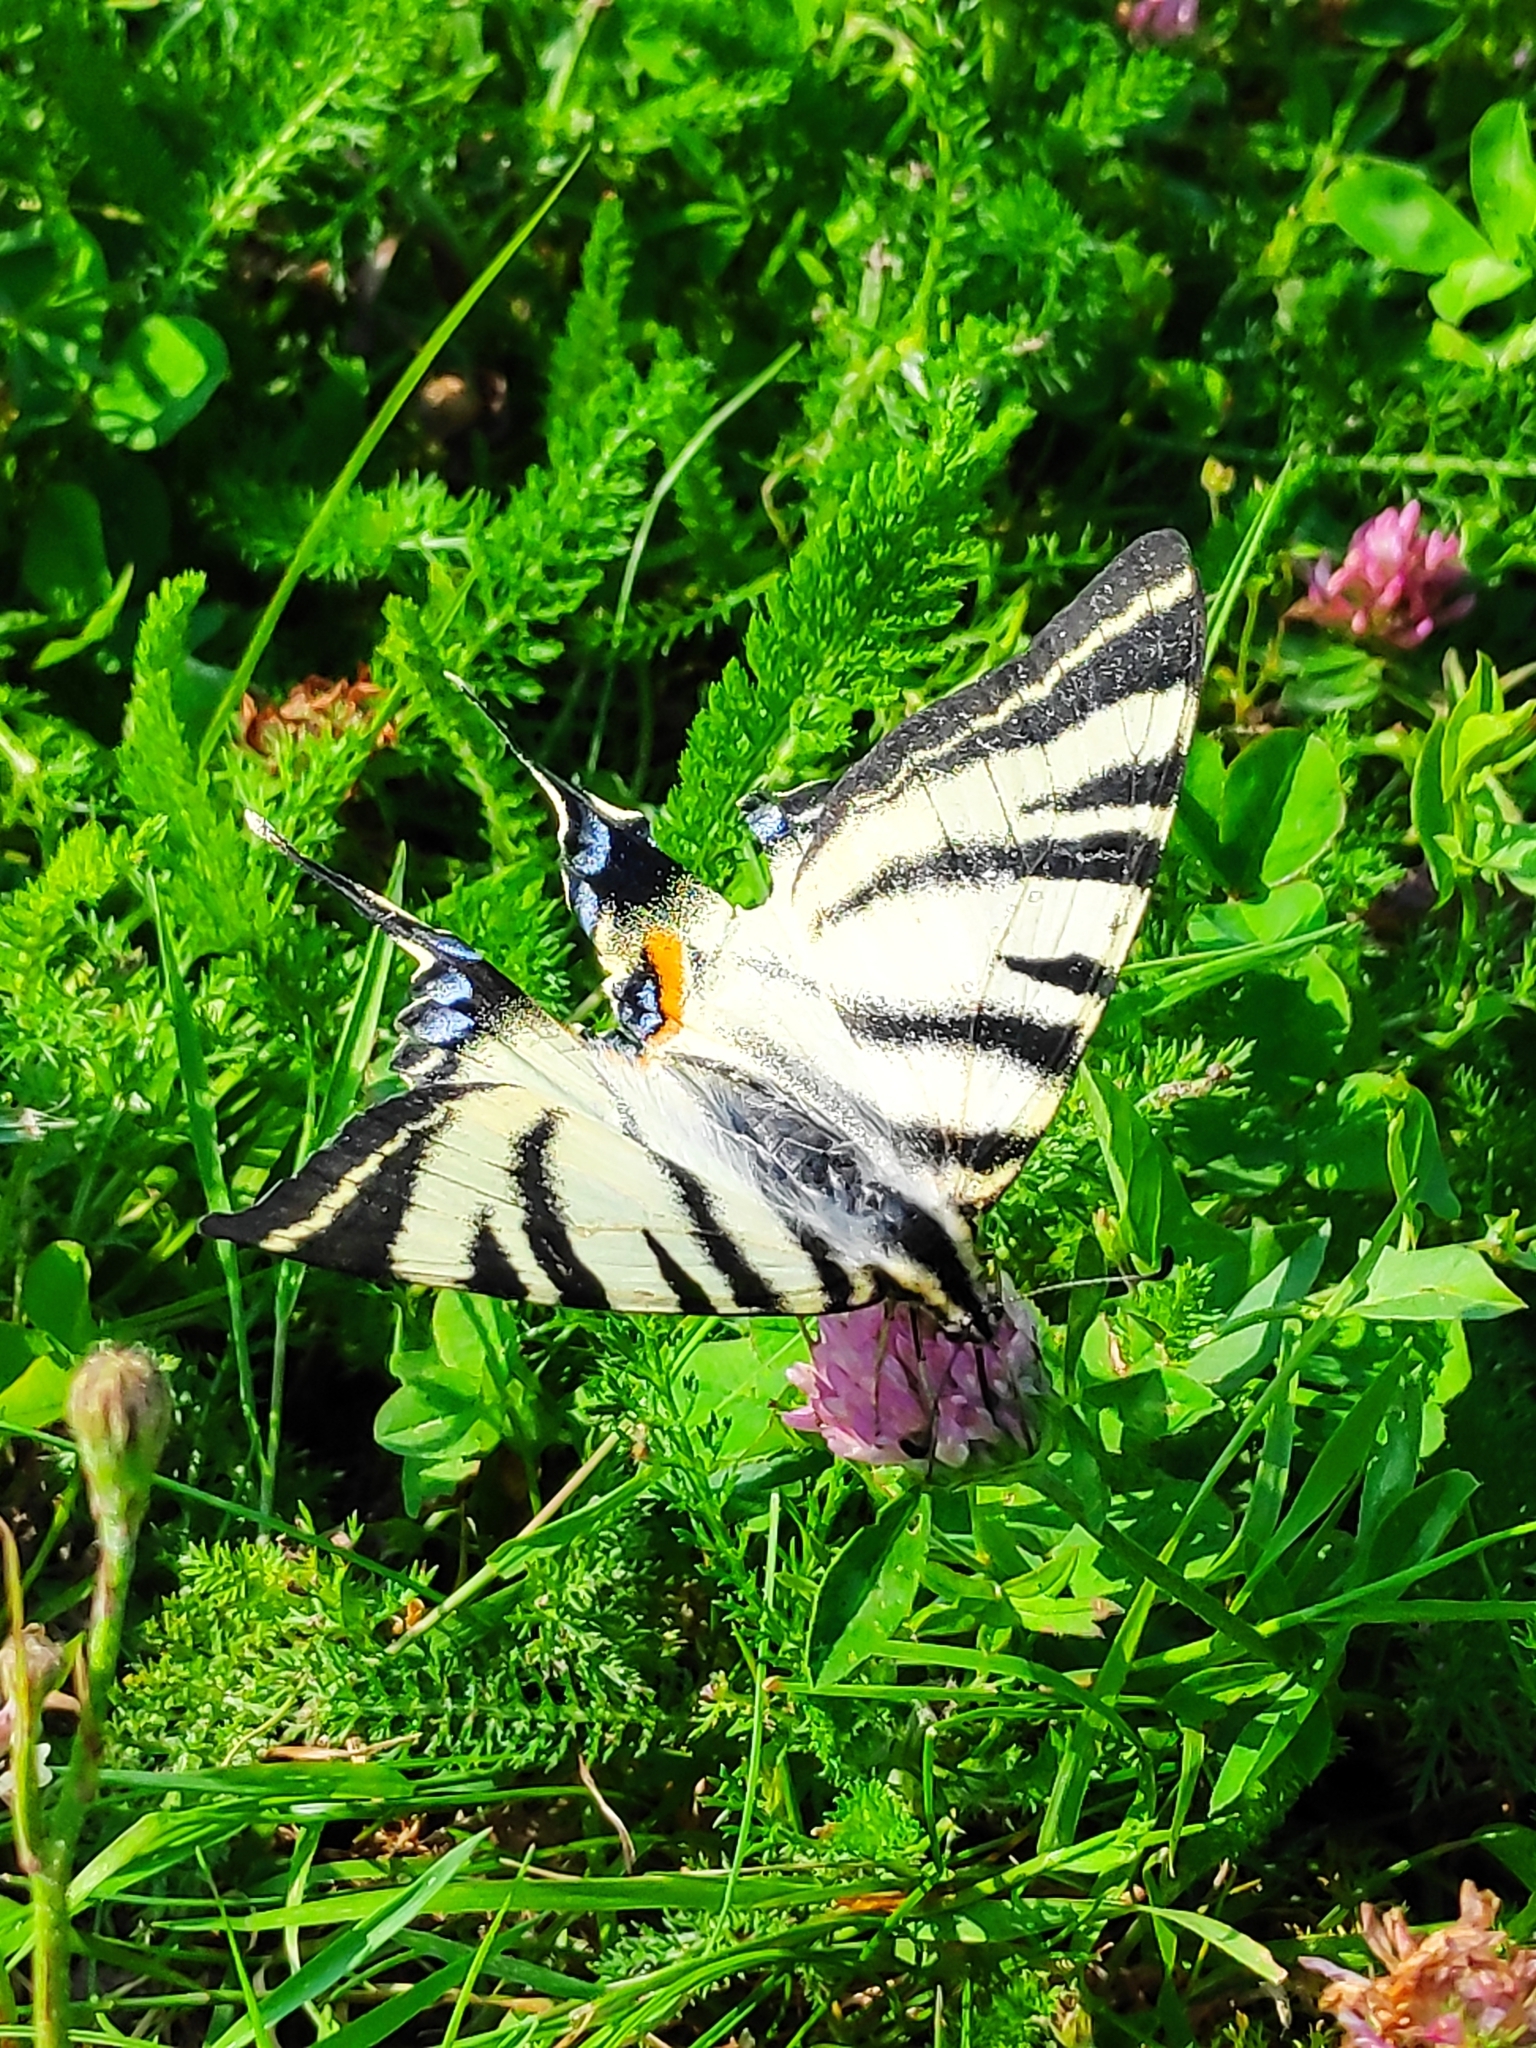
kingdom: Animalia
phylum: Arthropoda
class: Insecta
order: Lepidoptera
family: Papilionidae
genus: Iphiclides
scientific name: Iphiclides podalirius
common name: Scarce swallowtail
